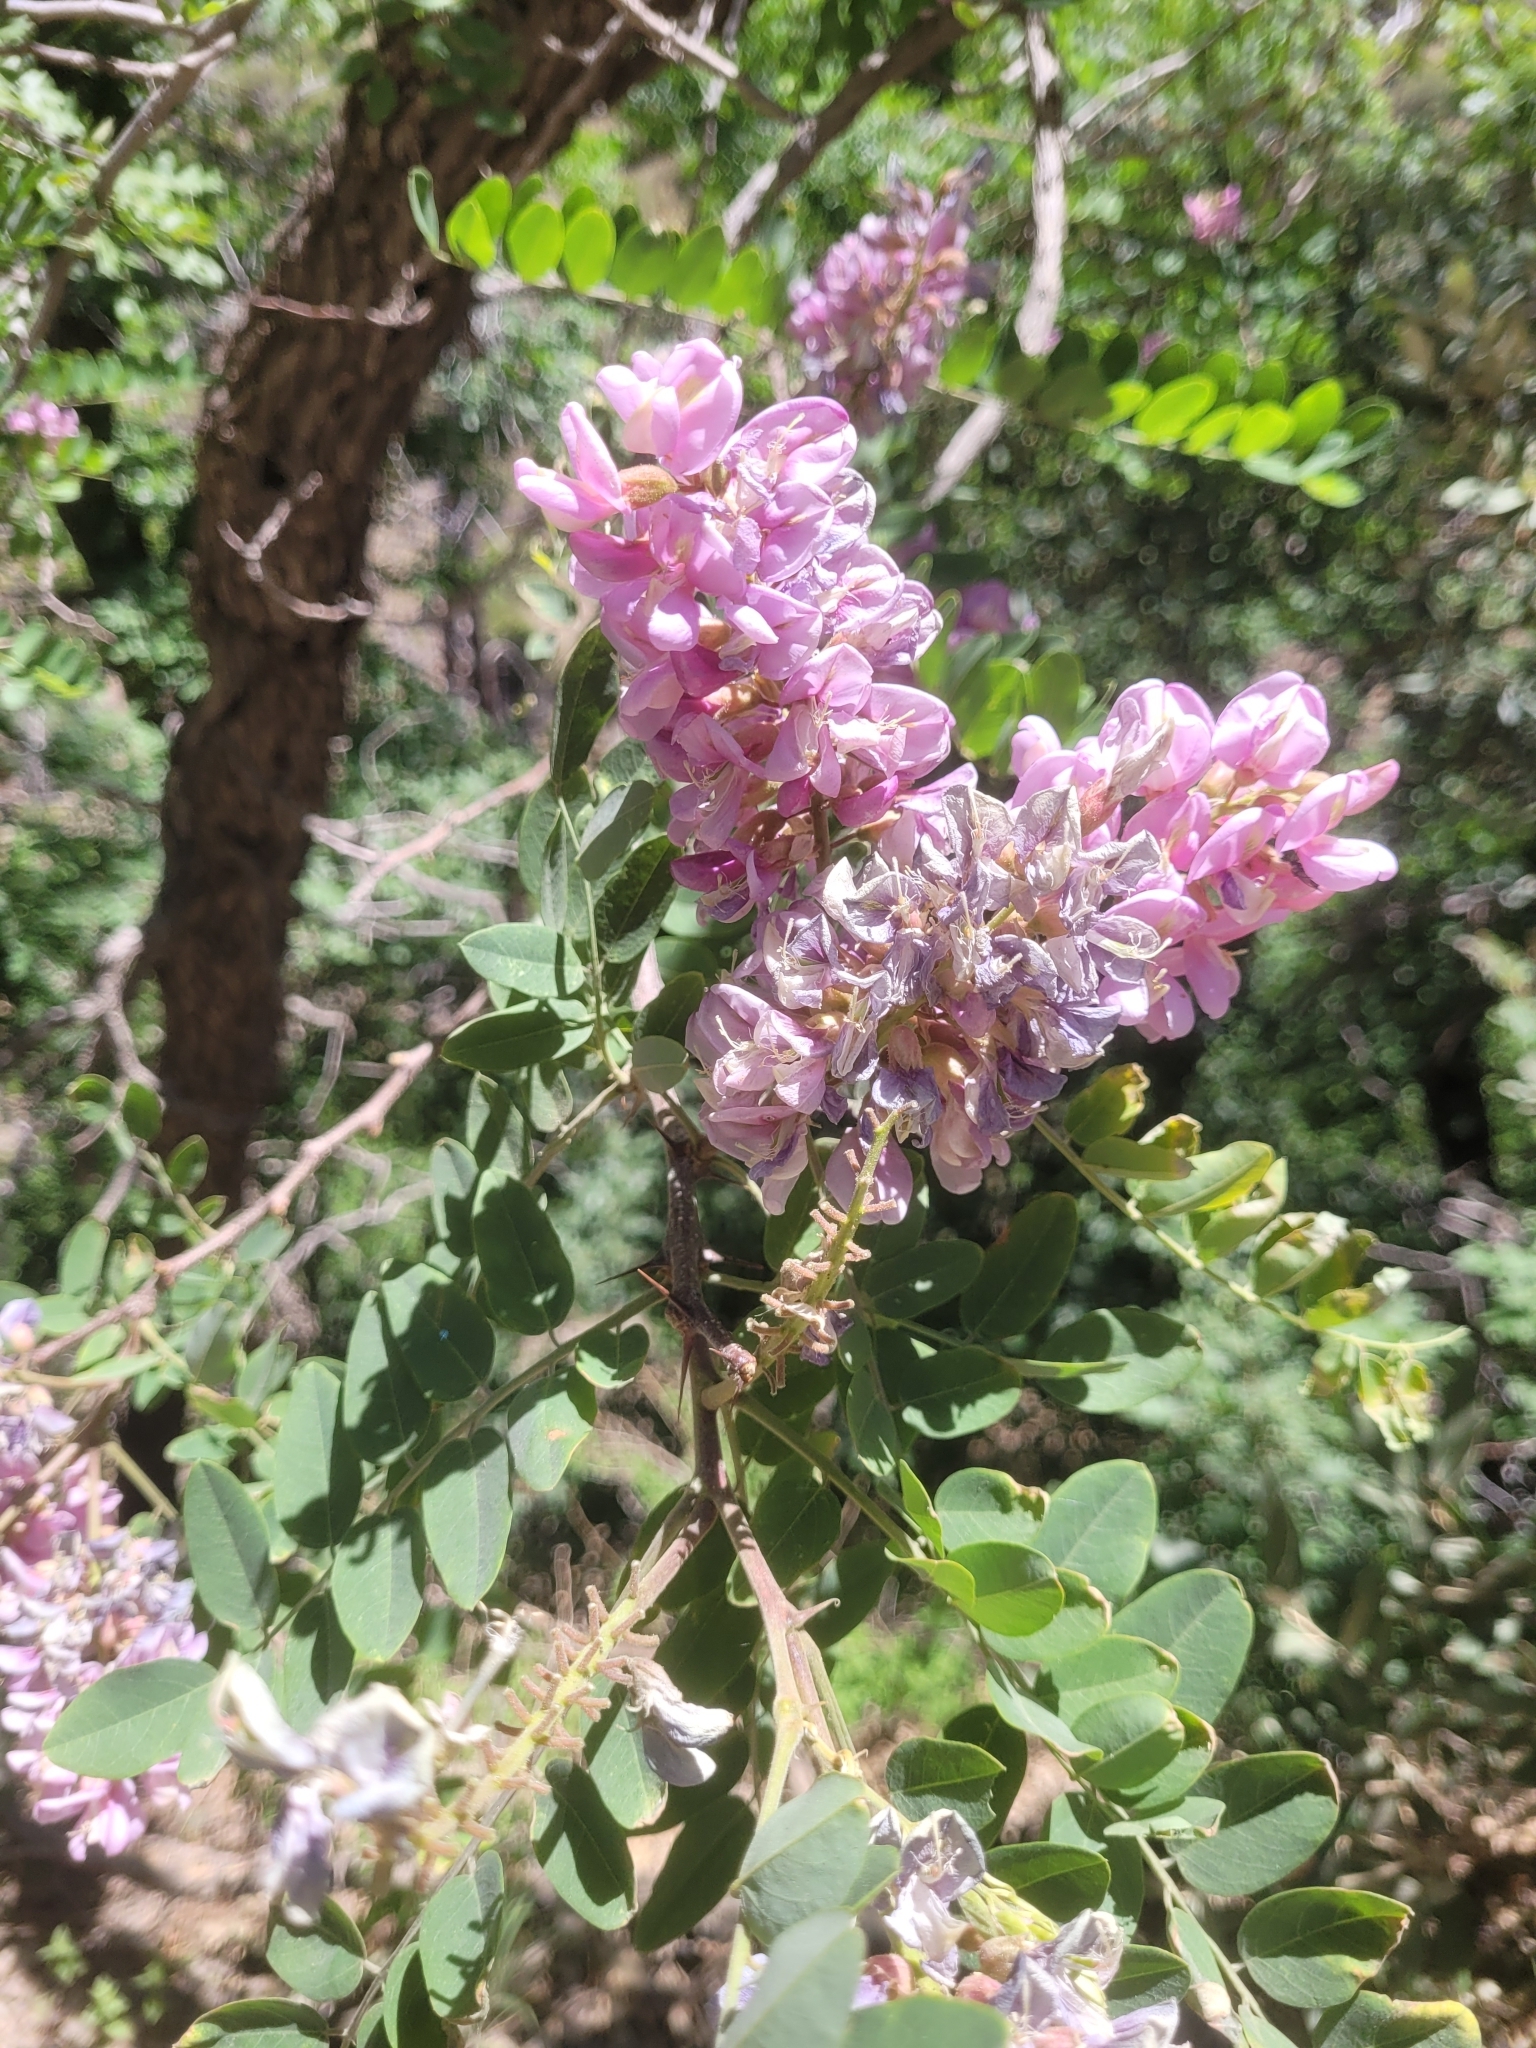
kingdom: Plantae
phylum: Tracheophyta
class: Magnoliopsida
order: Fabales
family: Fabaceae
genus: Robinia
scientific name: Robinia neomexicana
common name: New mexico locust
